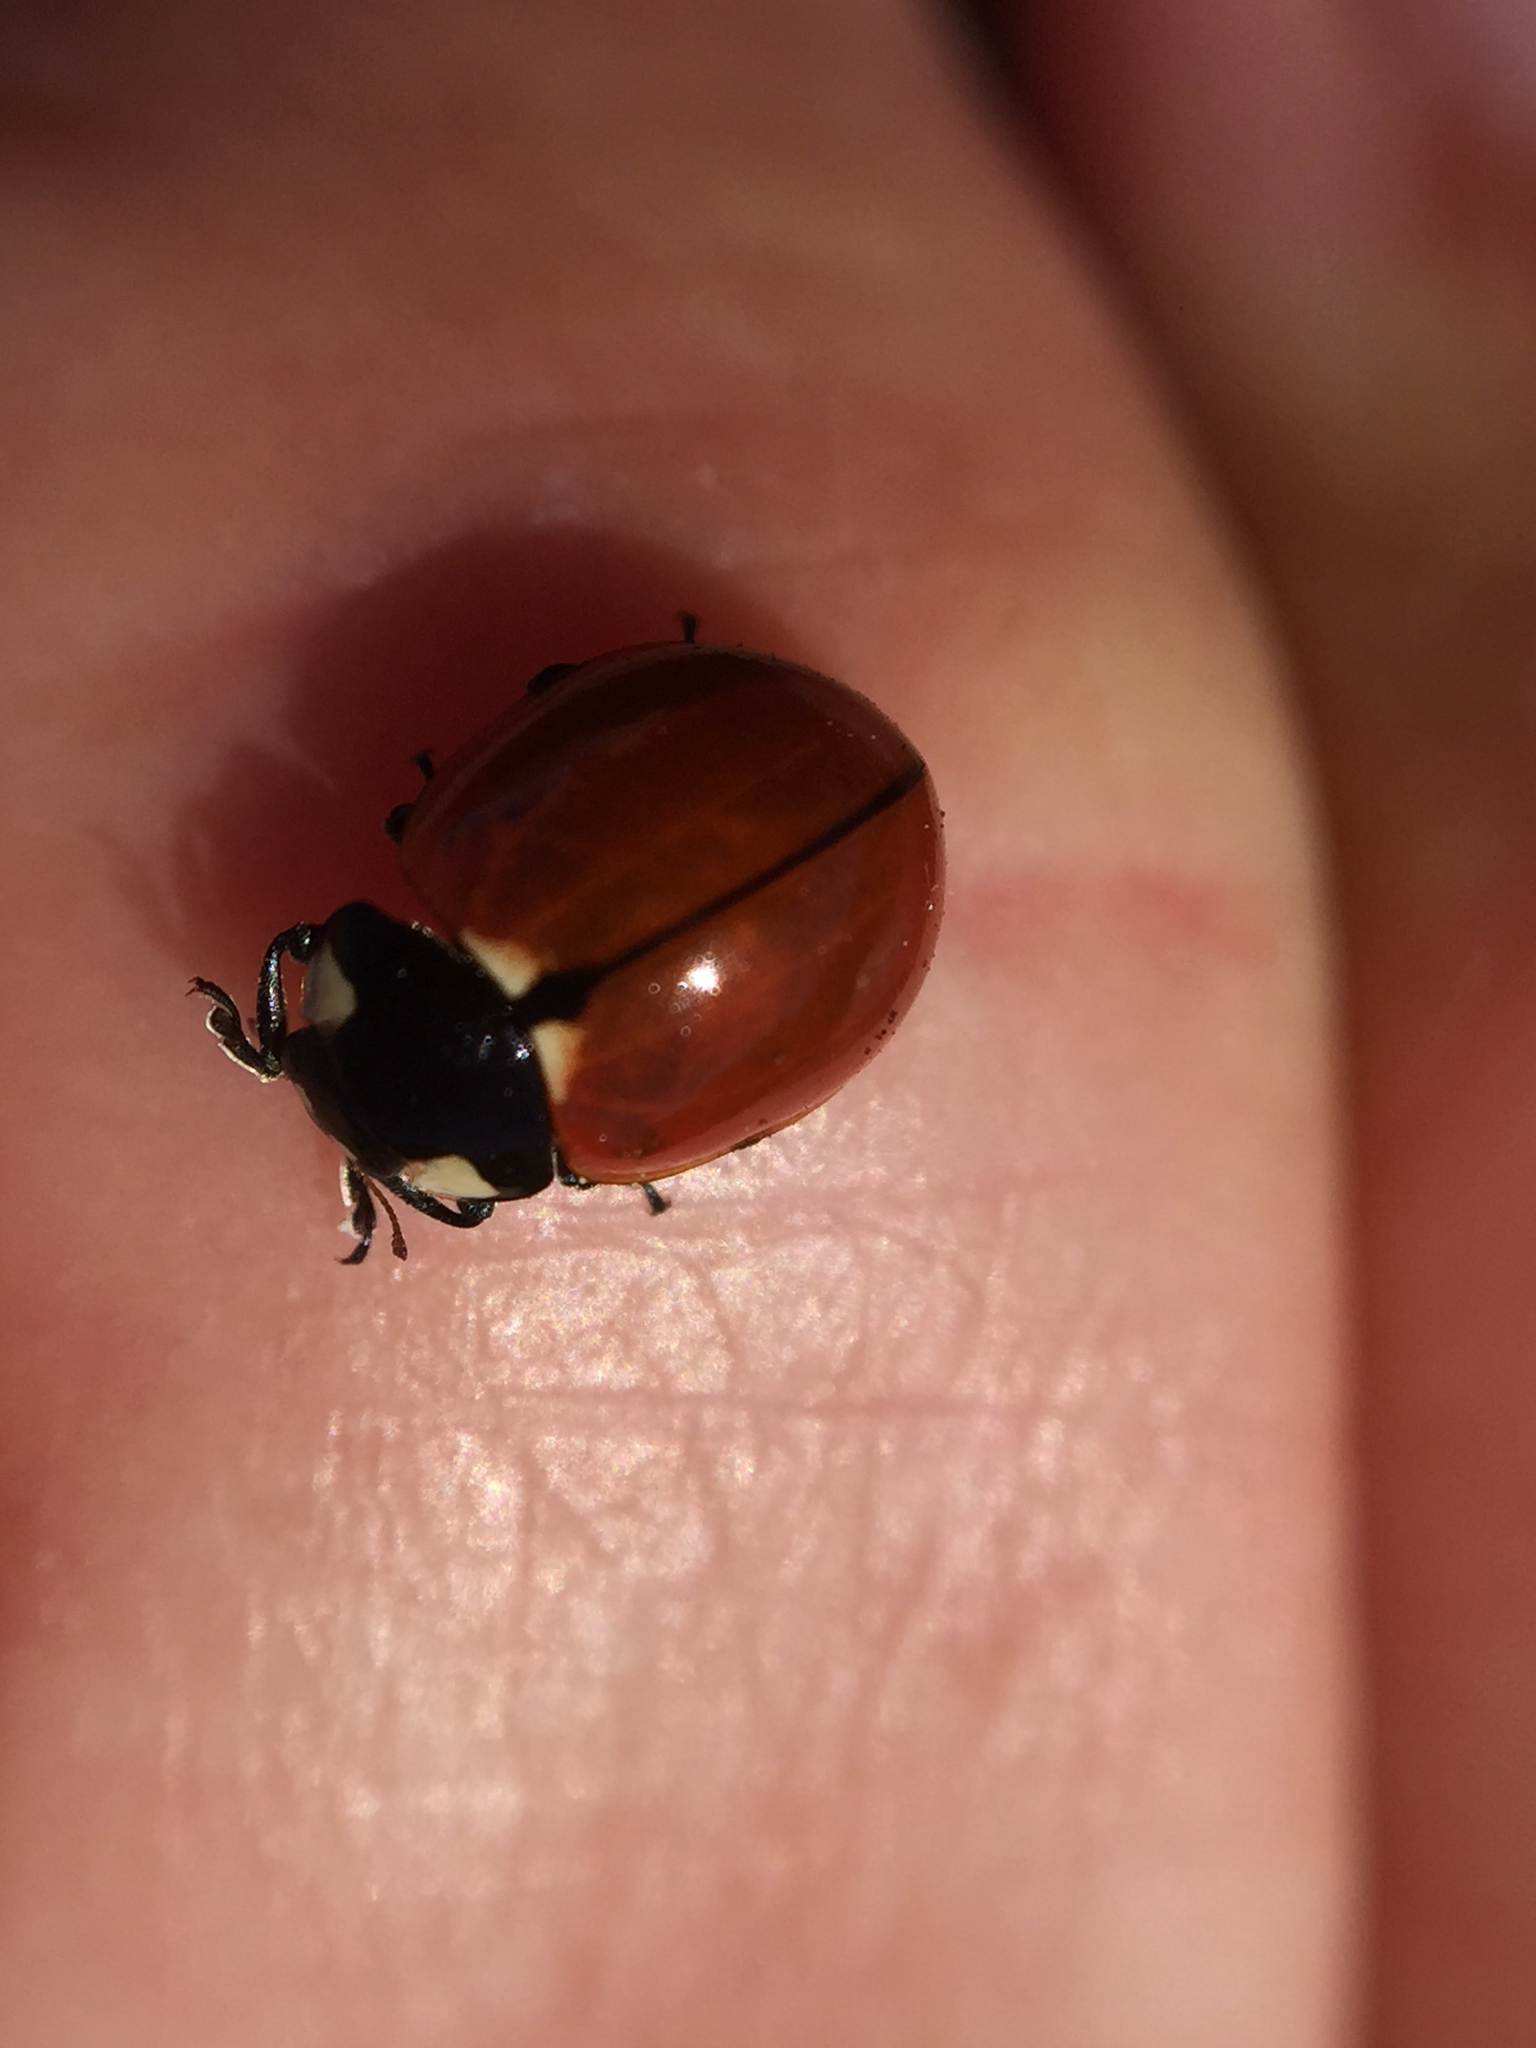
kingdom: Animalia
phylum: Arthropoda
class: Insecta
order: Coleoptera
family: Coccinellidae
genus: Coccinella
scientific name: Coccinella californica
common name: Lady beetle
